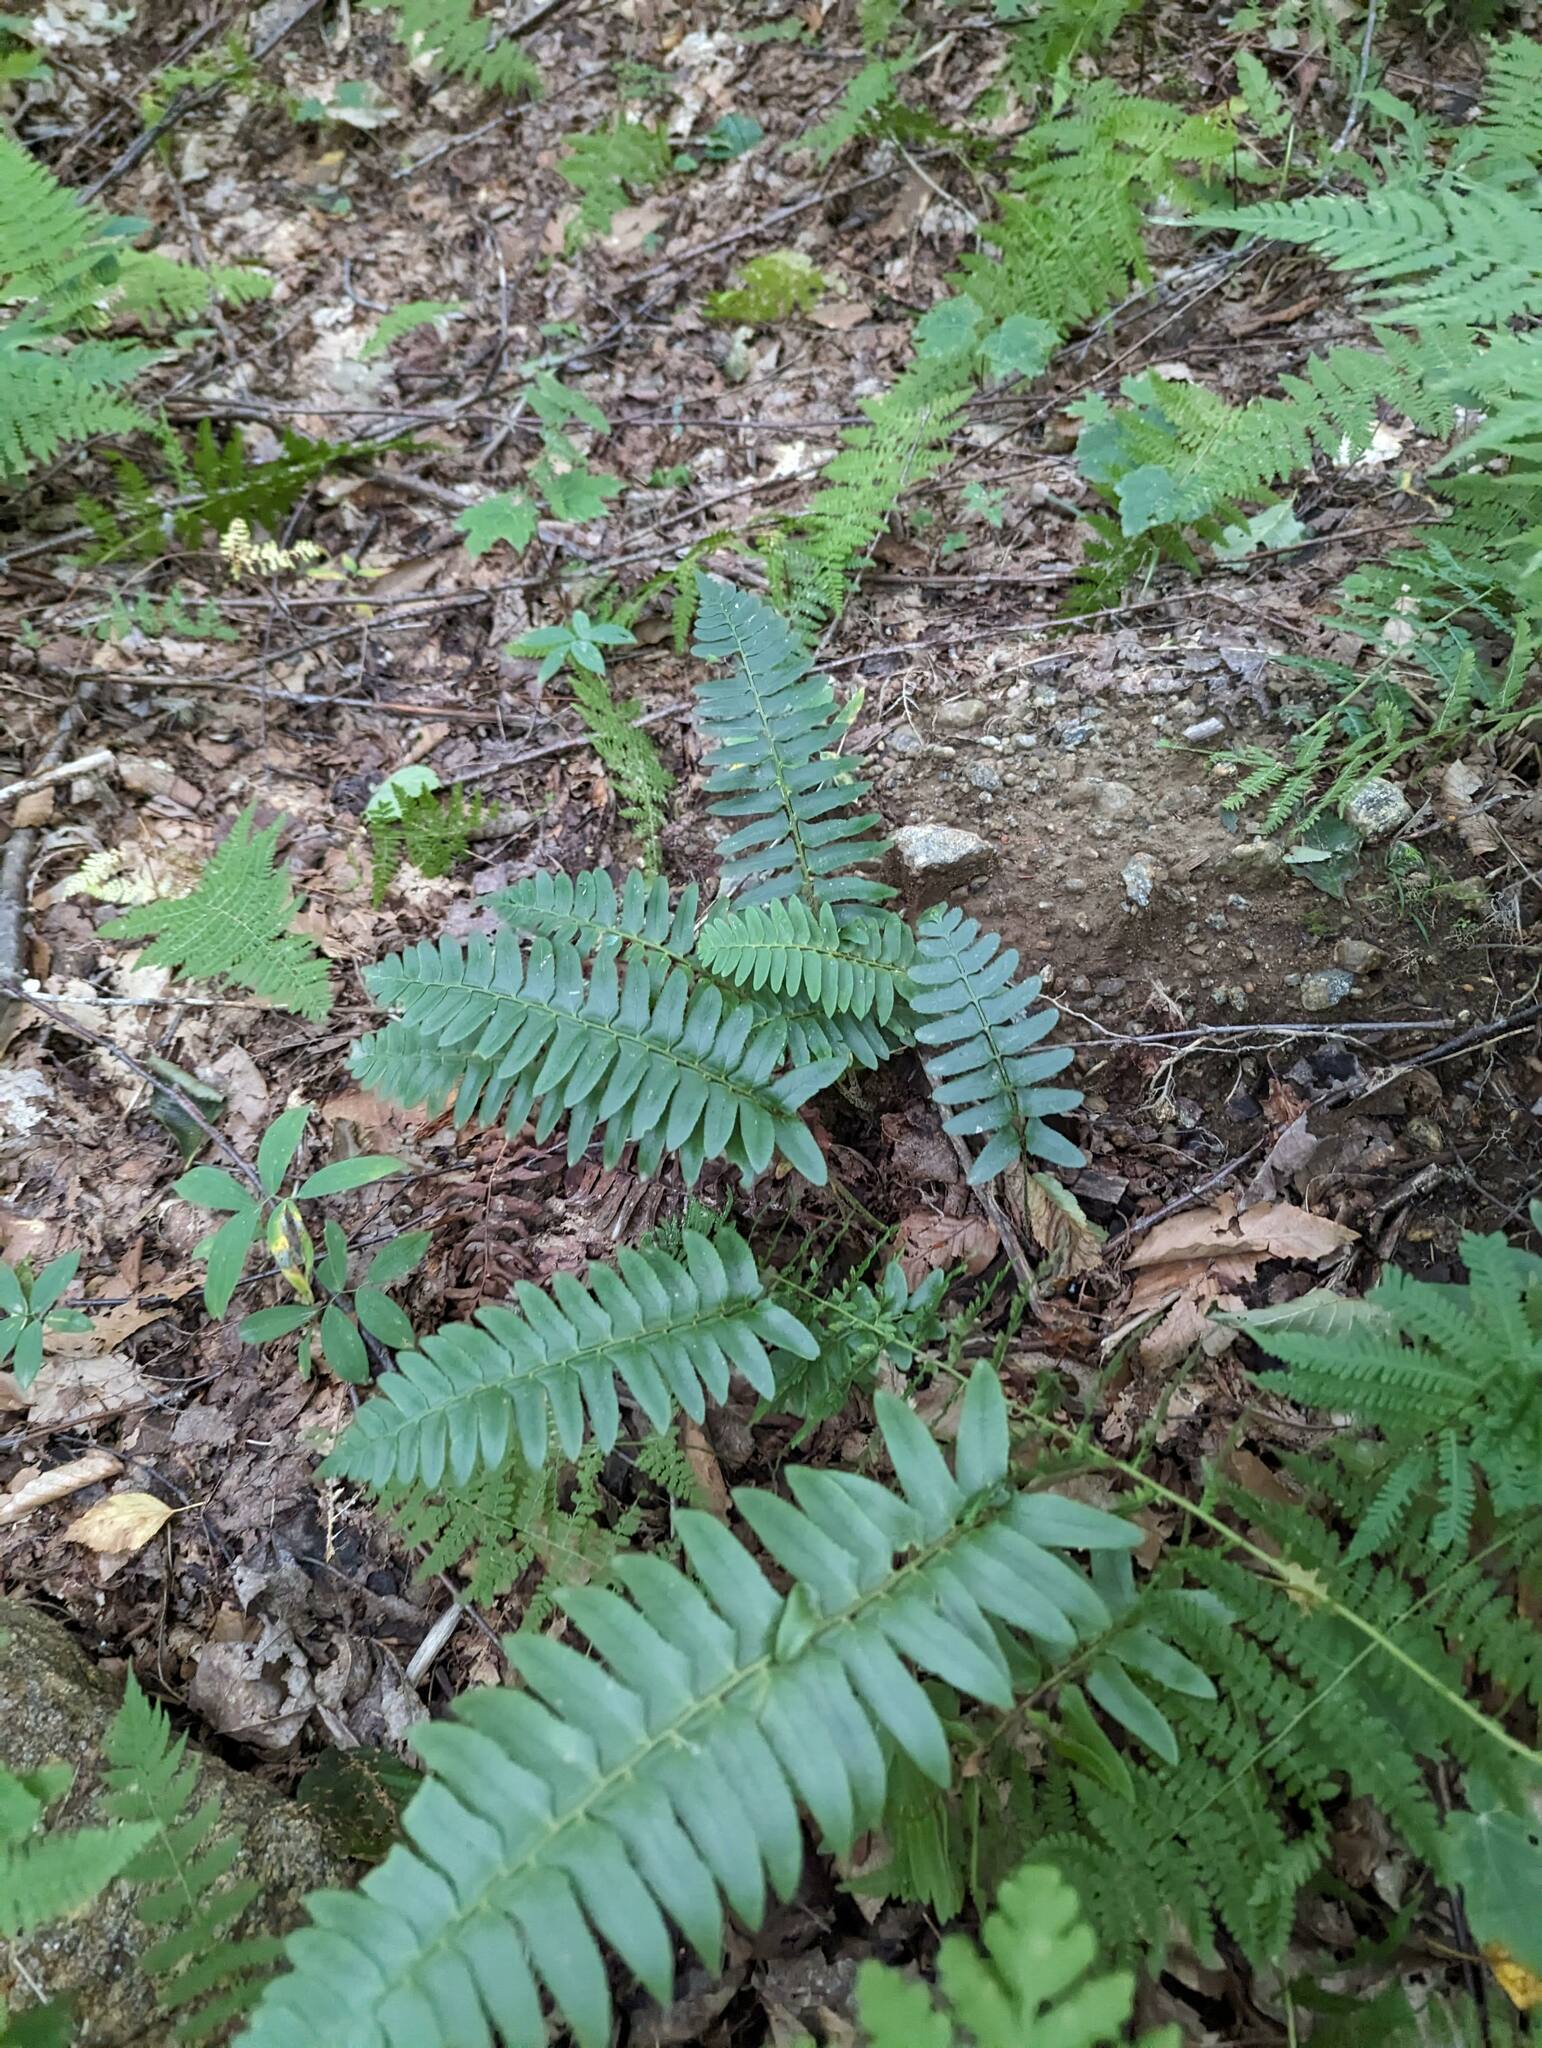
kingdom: Plantae
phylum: Tracheophyta
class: Polypodiopsida
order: Polypodiales
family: Dryopteridaceae
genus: Polystichum
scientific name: Polystichum acrostichoides
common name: Christmas fern
